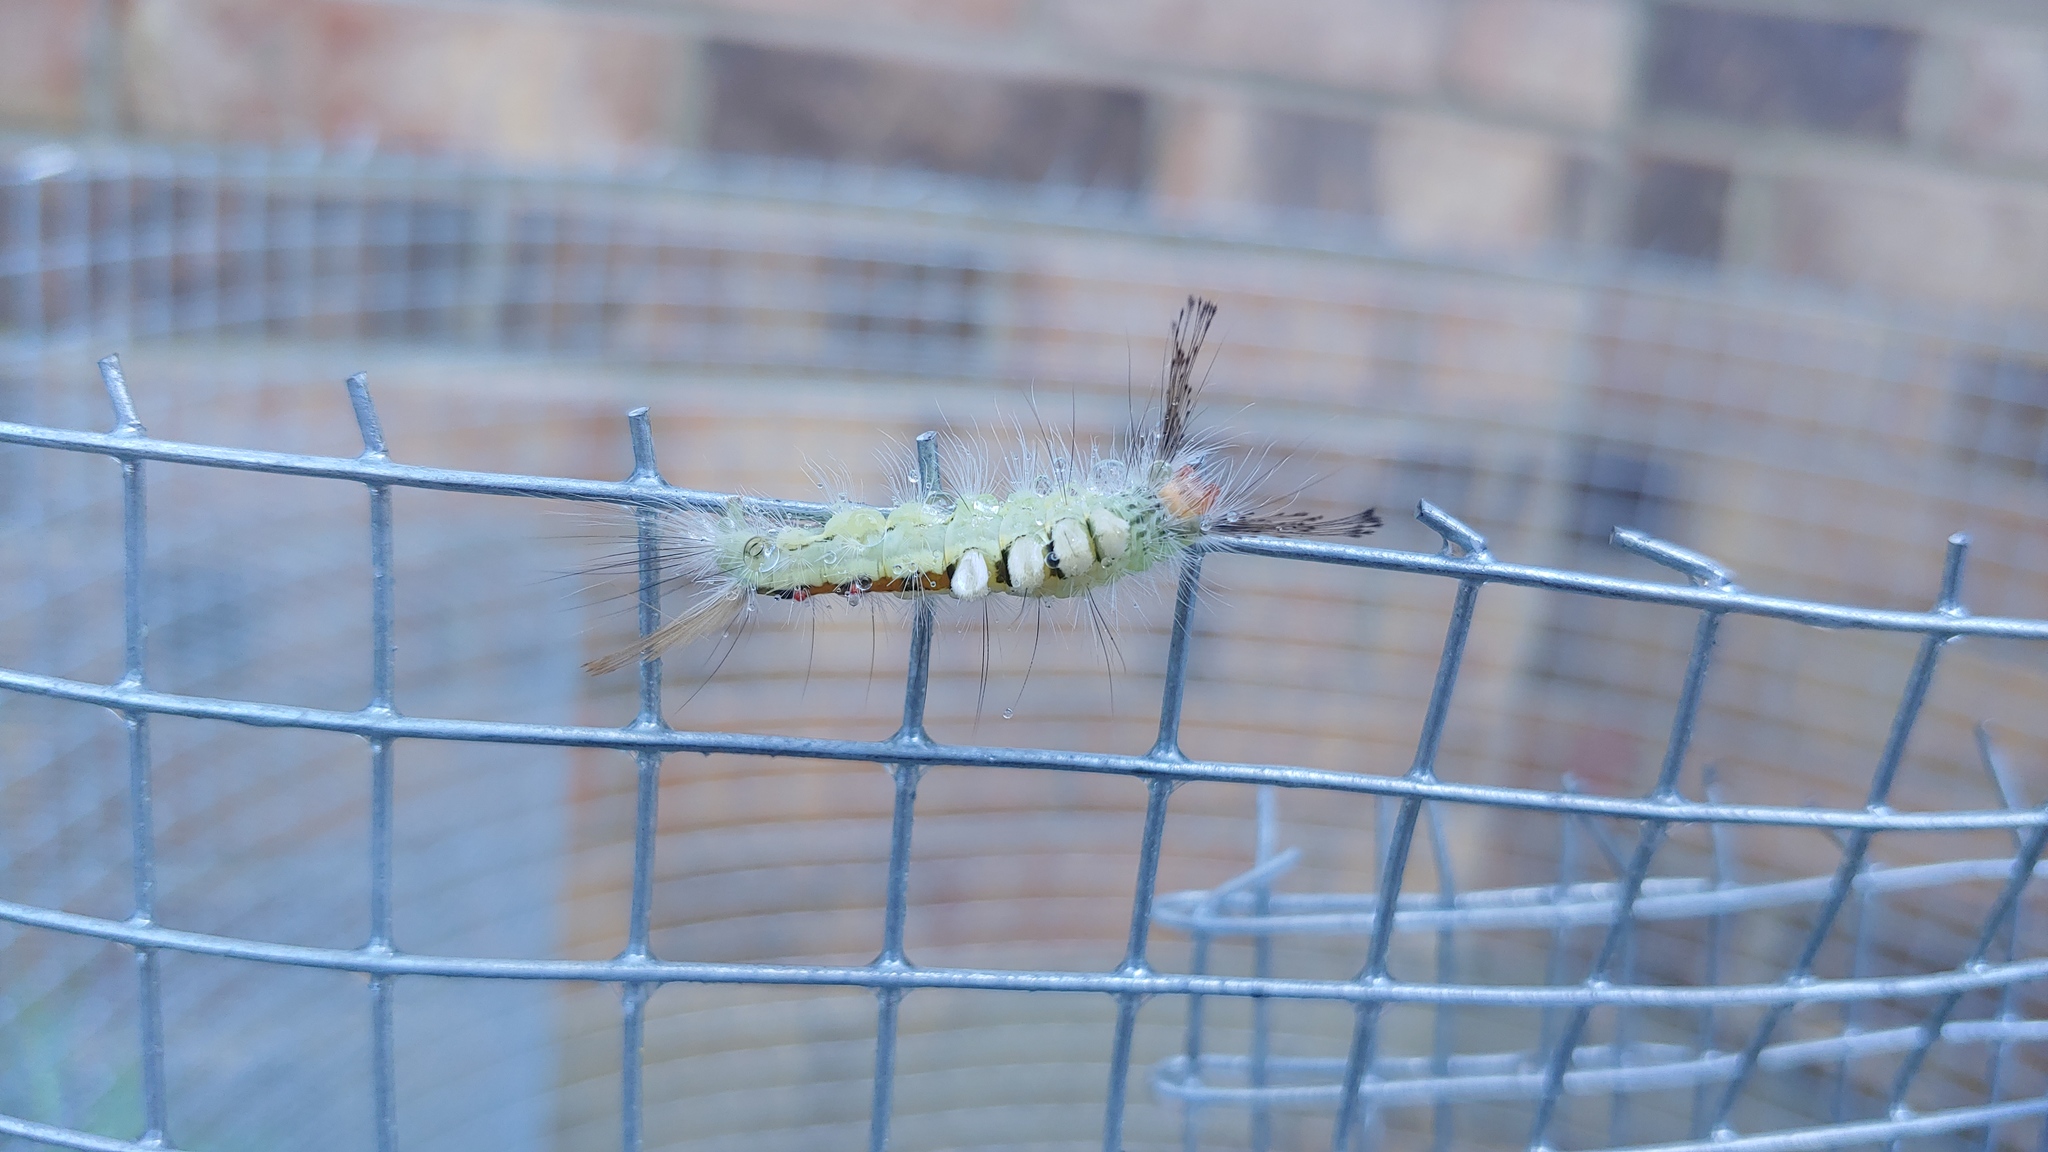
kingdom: Animalia
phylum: Arthropoda
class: Insecta
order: Lepidoptera
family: Erebidae
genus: Orgyia
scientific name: Orgyia leucostigma
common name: White-marked tussock moth
